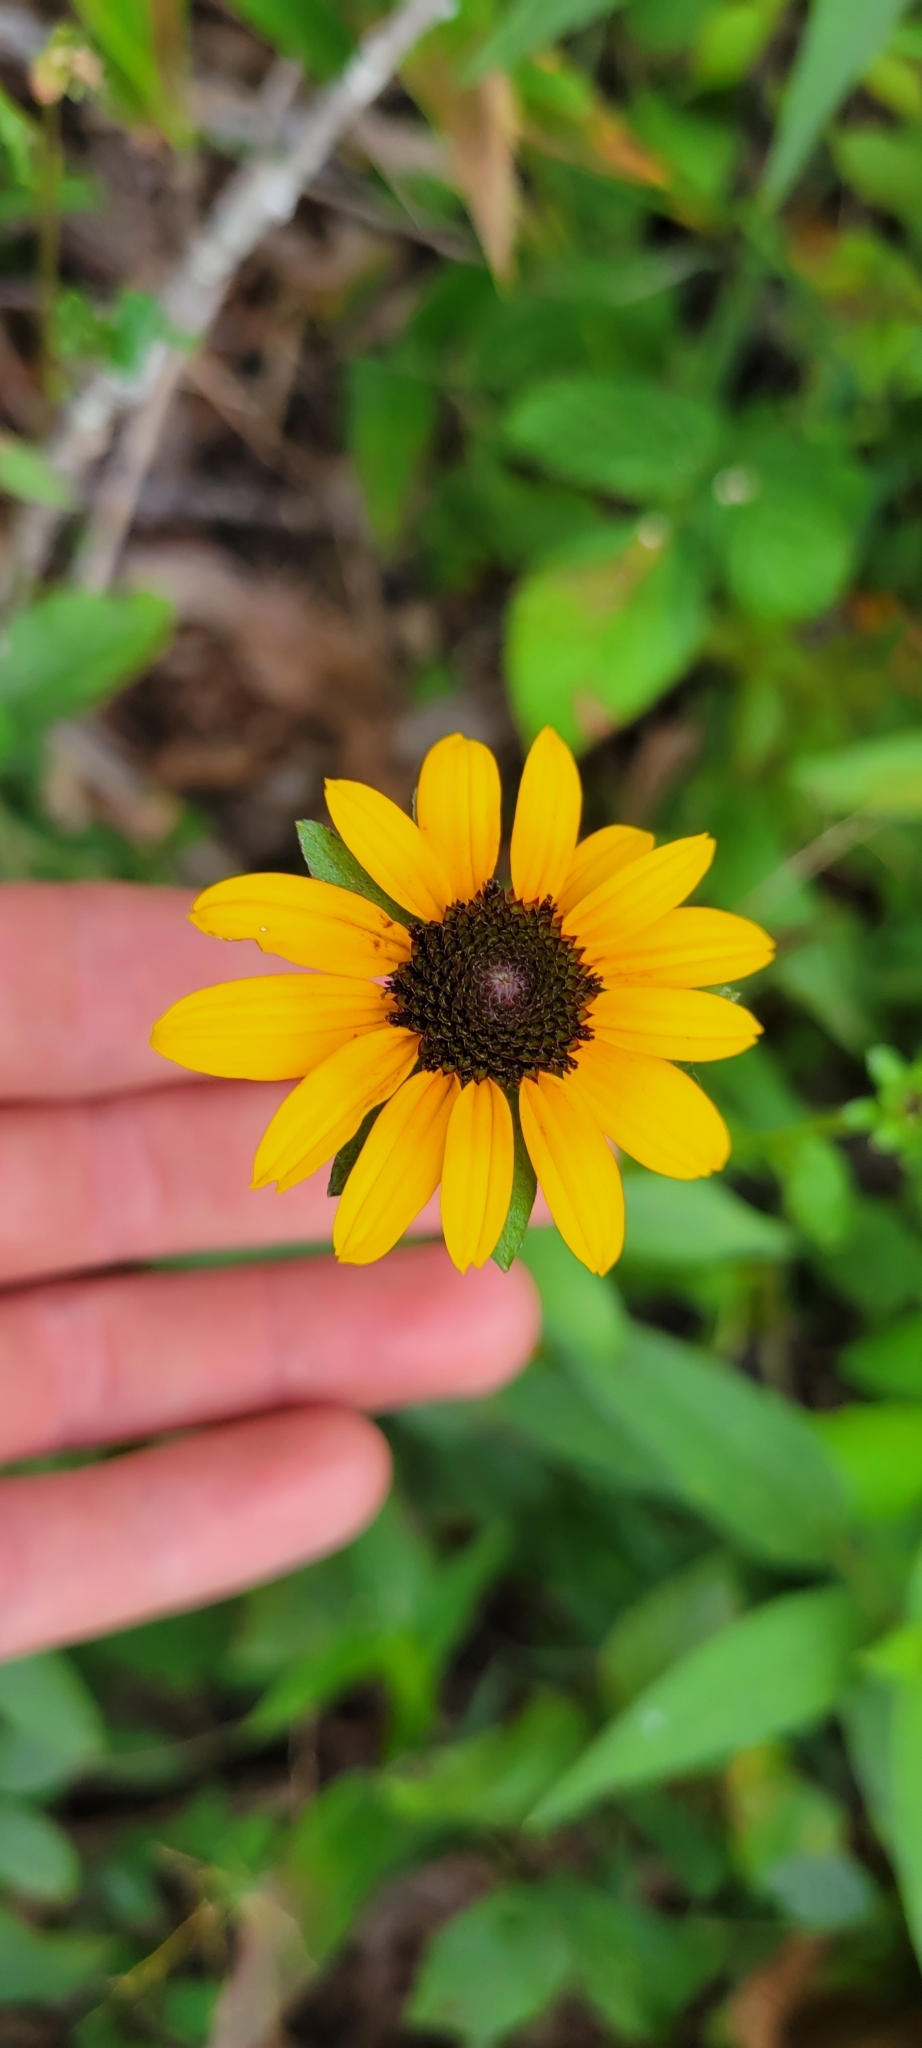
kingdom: Plantae
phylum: Tracheophyta
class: Magnoliopsida
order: Asterales
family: Asteraceae
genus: Rudbeckia
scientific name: Rudbeckia fulgida
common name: Perennial coneflower
